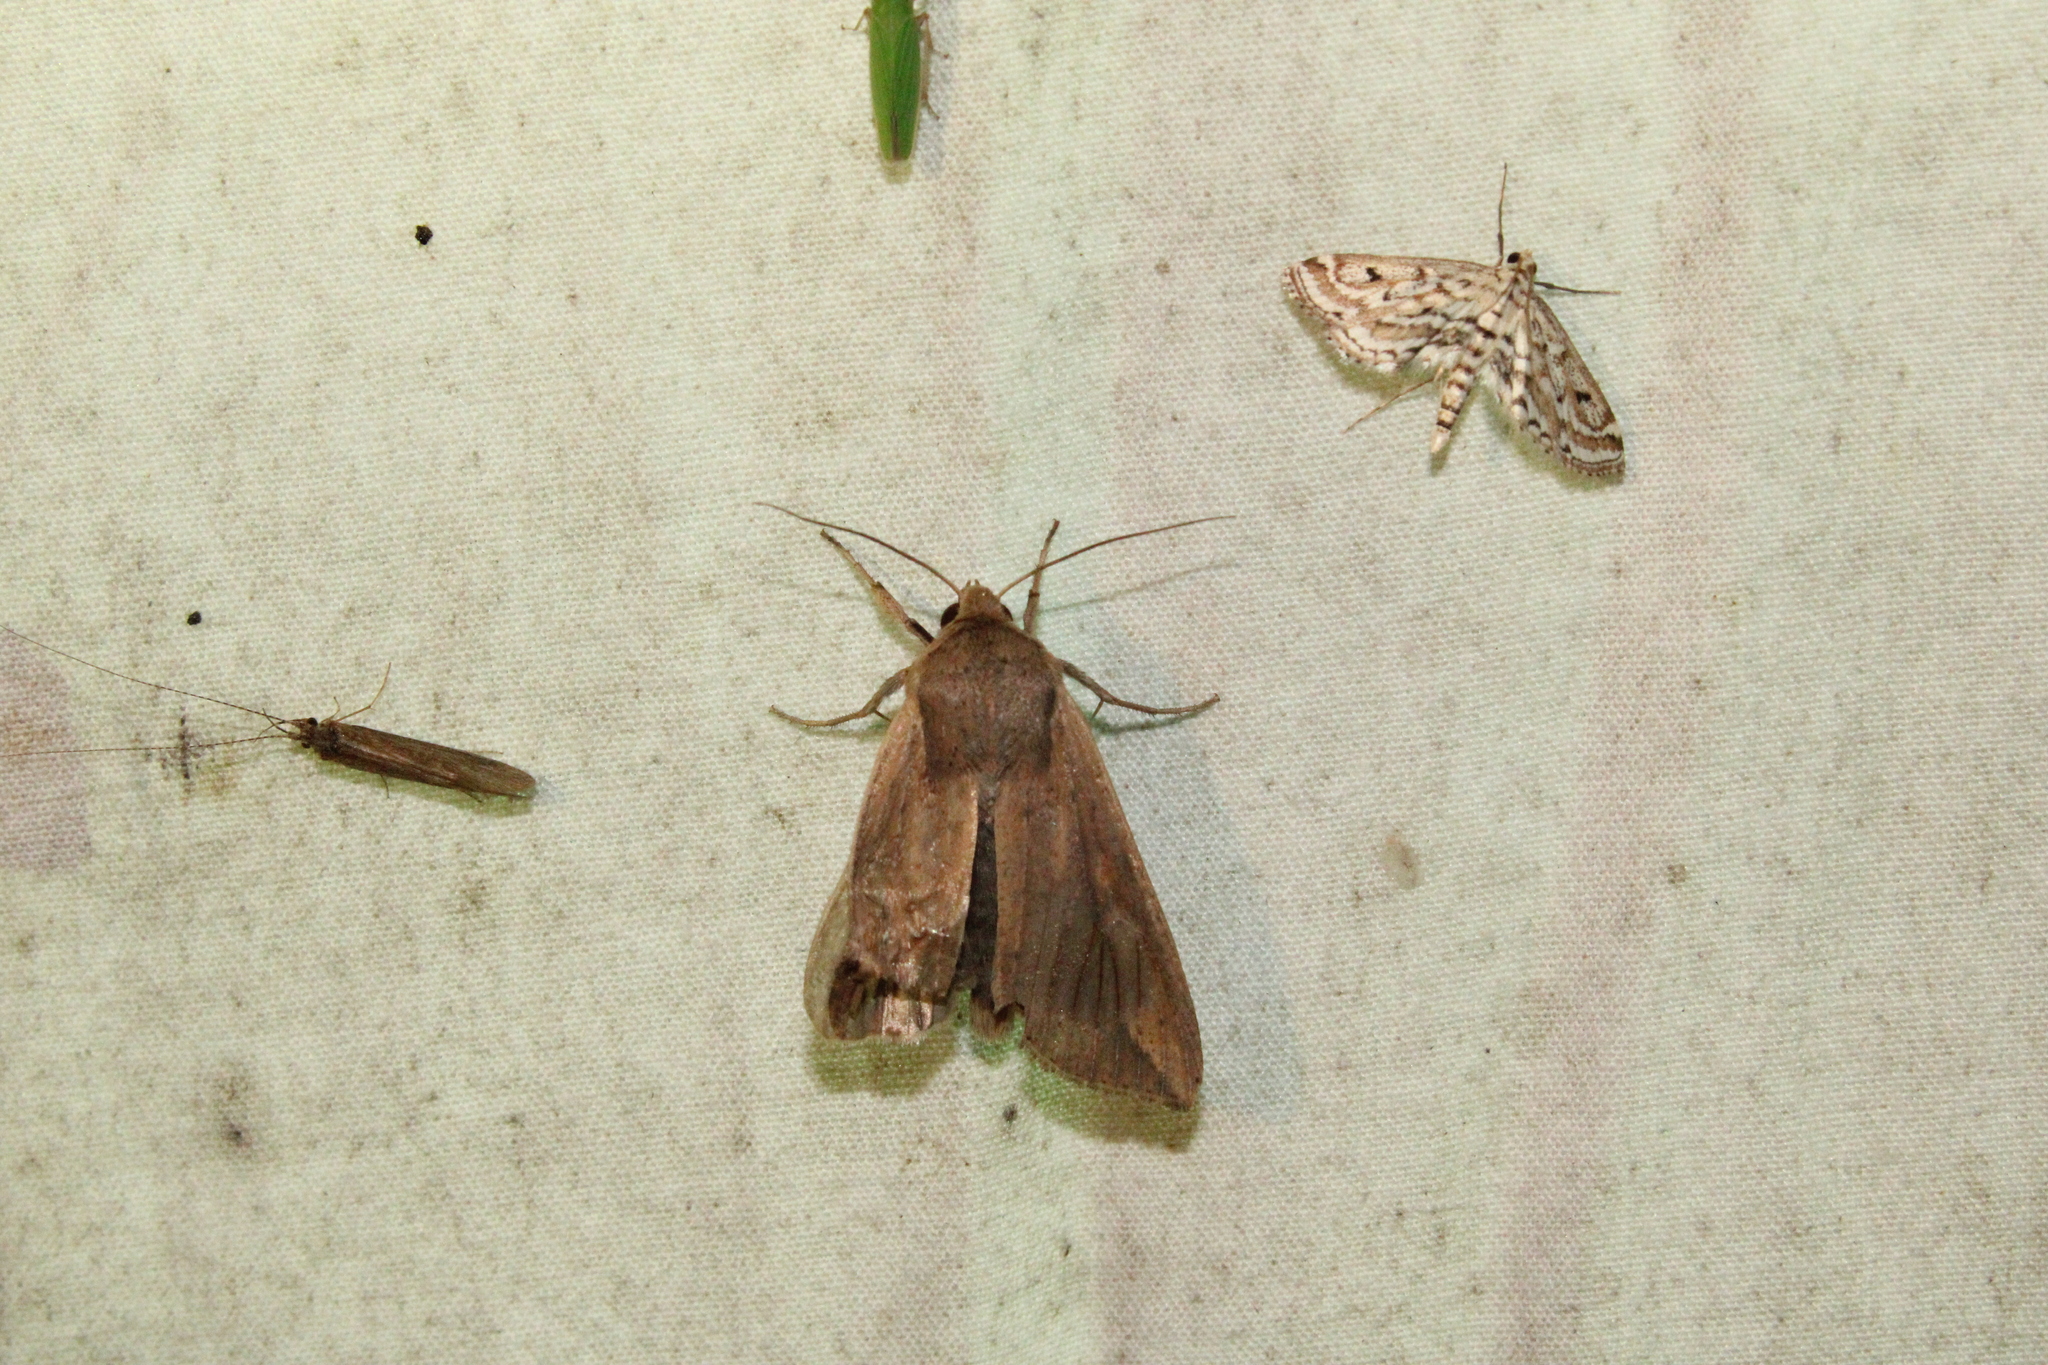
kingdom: Animalia
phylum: Arthropoda
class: Insecta
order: Lepidoptera
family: Noctuidae
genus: Mythimna
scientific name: Mythimna unipuncta
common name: White-speck
